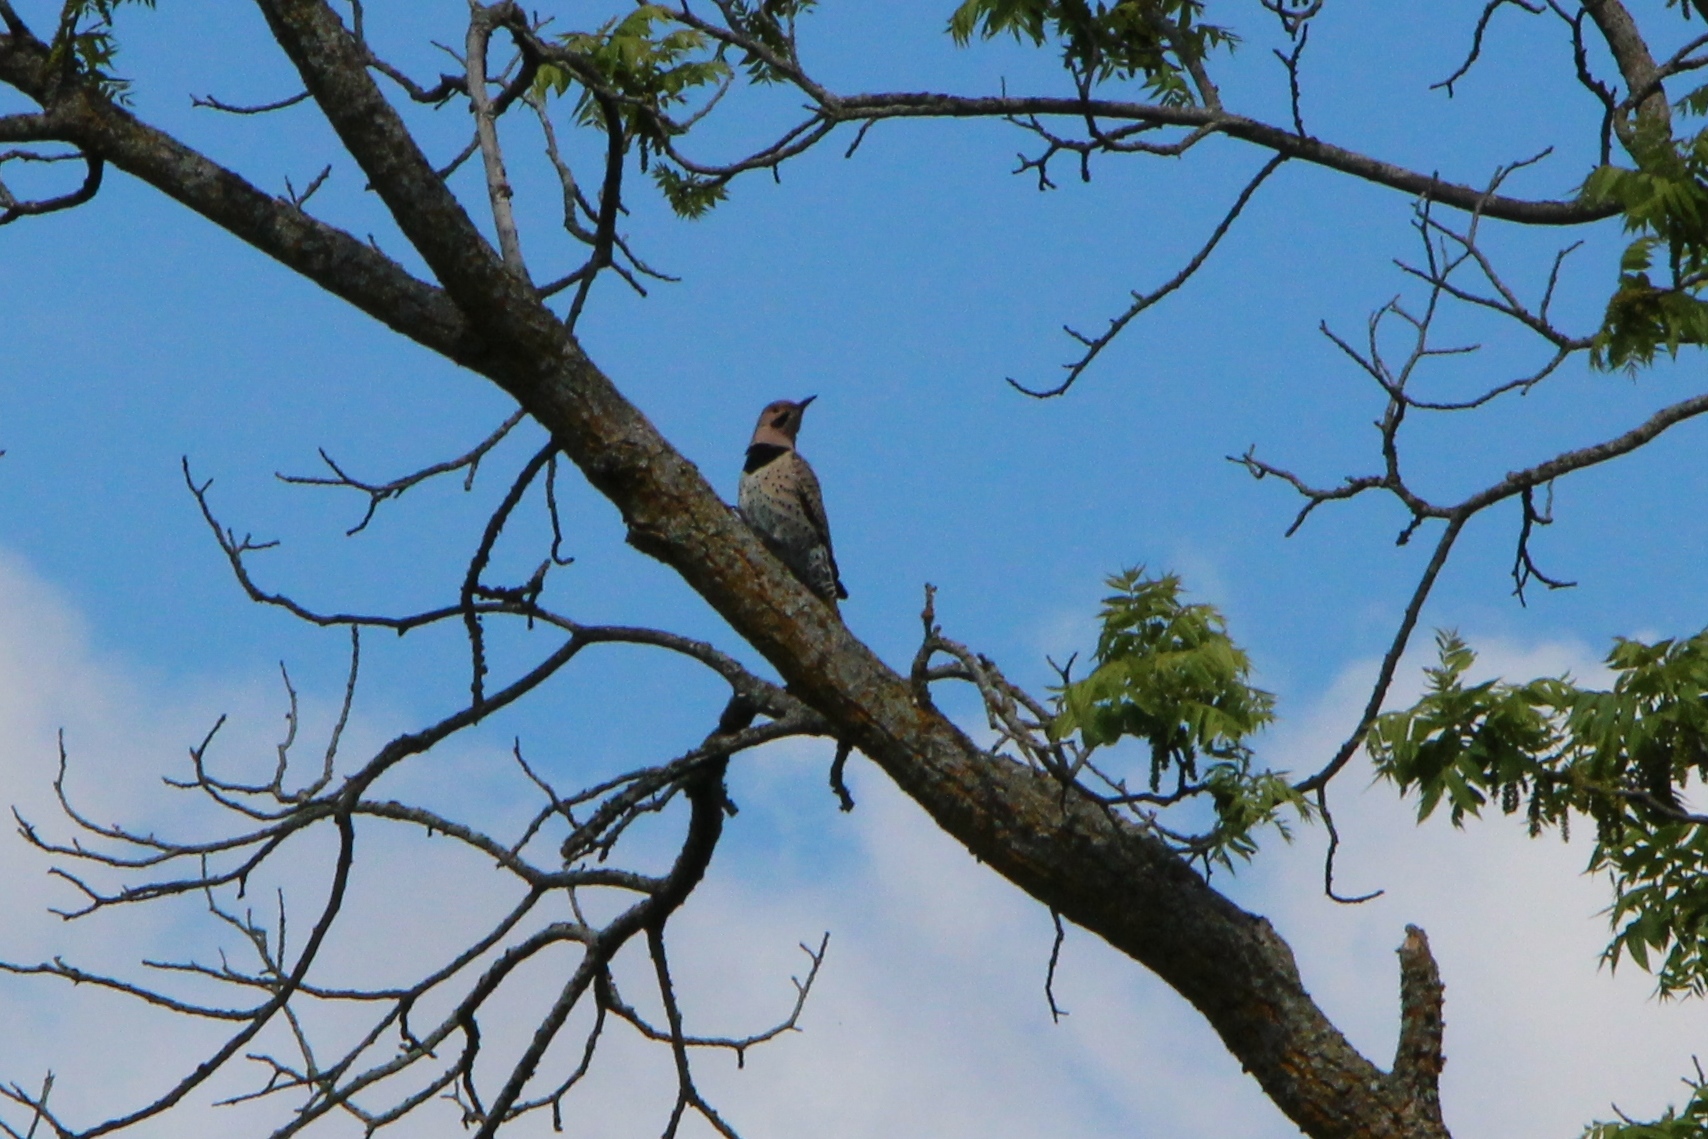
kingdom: Animalia
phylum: Chordata
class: Aves
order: Piciformes
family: Picidae
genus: Colaptes
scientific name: Colaptes auratus
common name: Northern flicker
